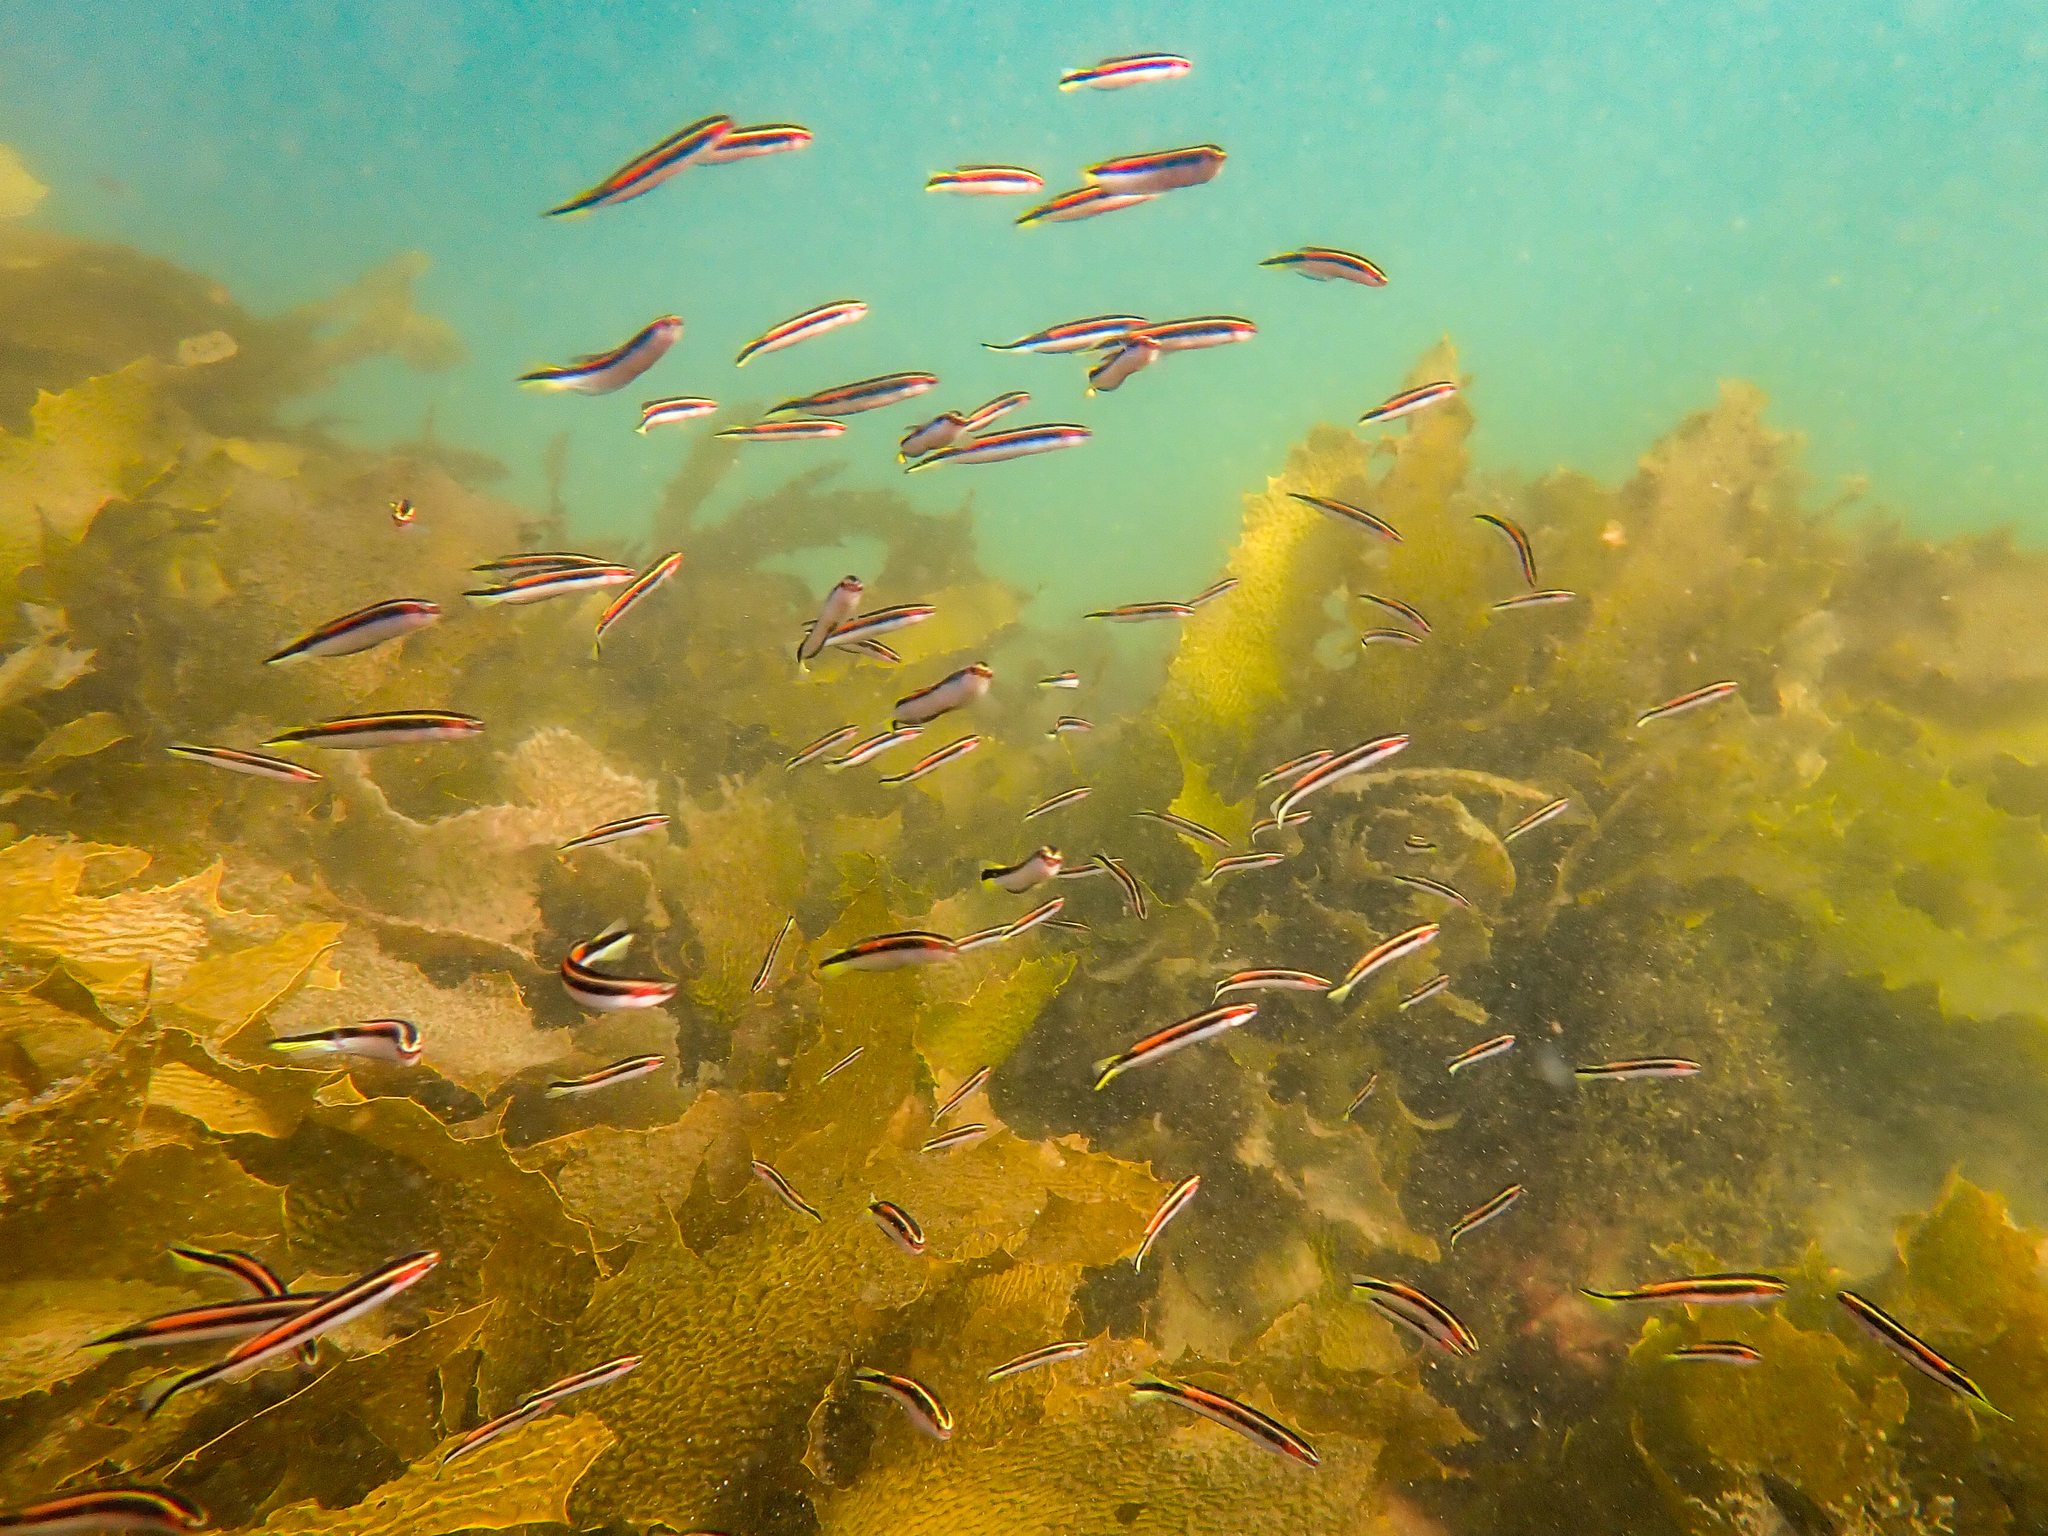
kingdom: Animalia
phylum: Chordata
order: Perciformes
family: Plesiopidae
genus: Trachinops
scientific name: Trachinops taeniatus
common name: Eastern hulafish
